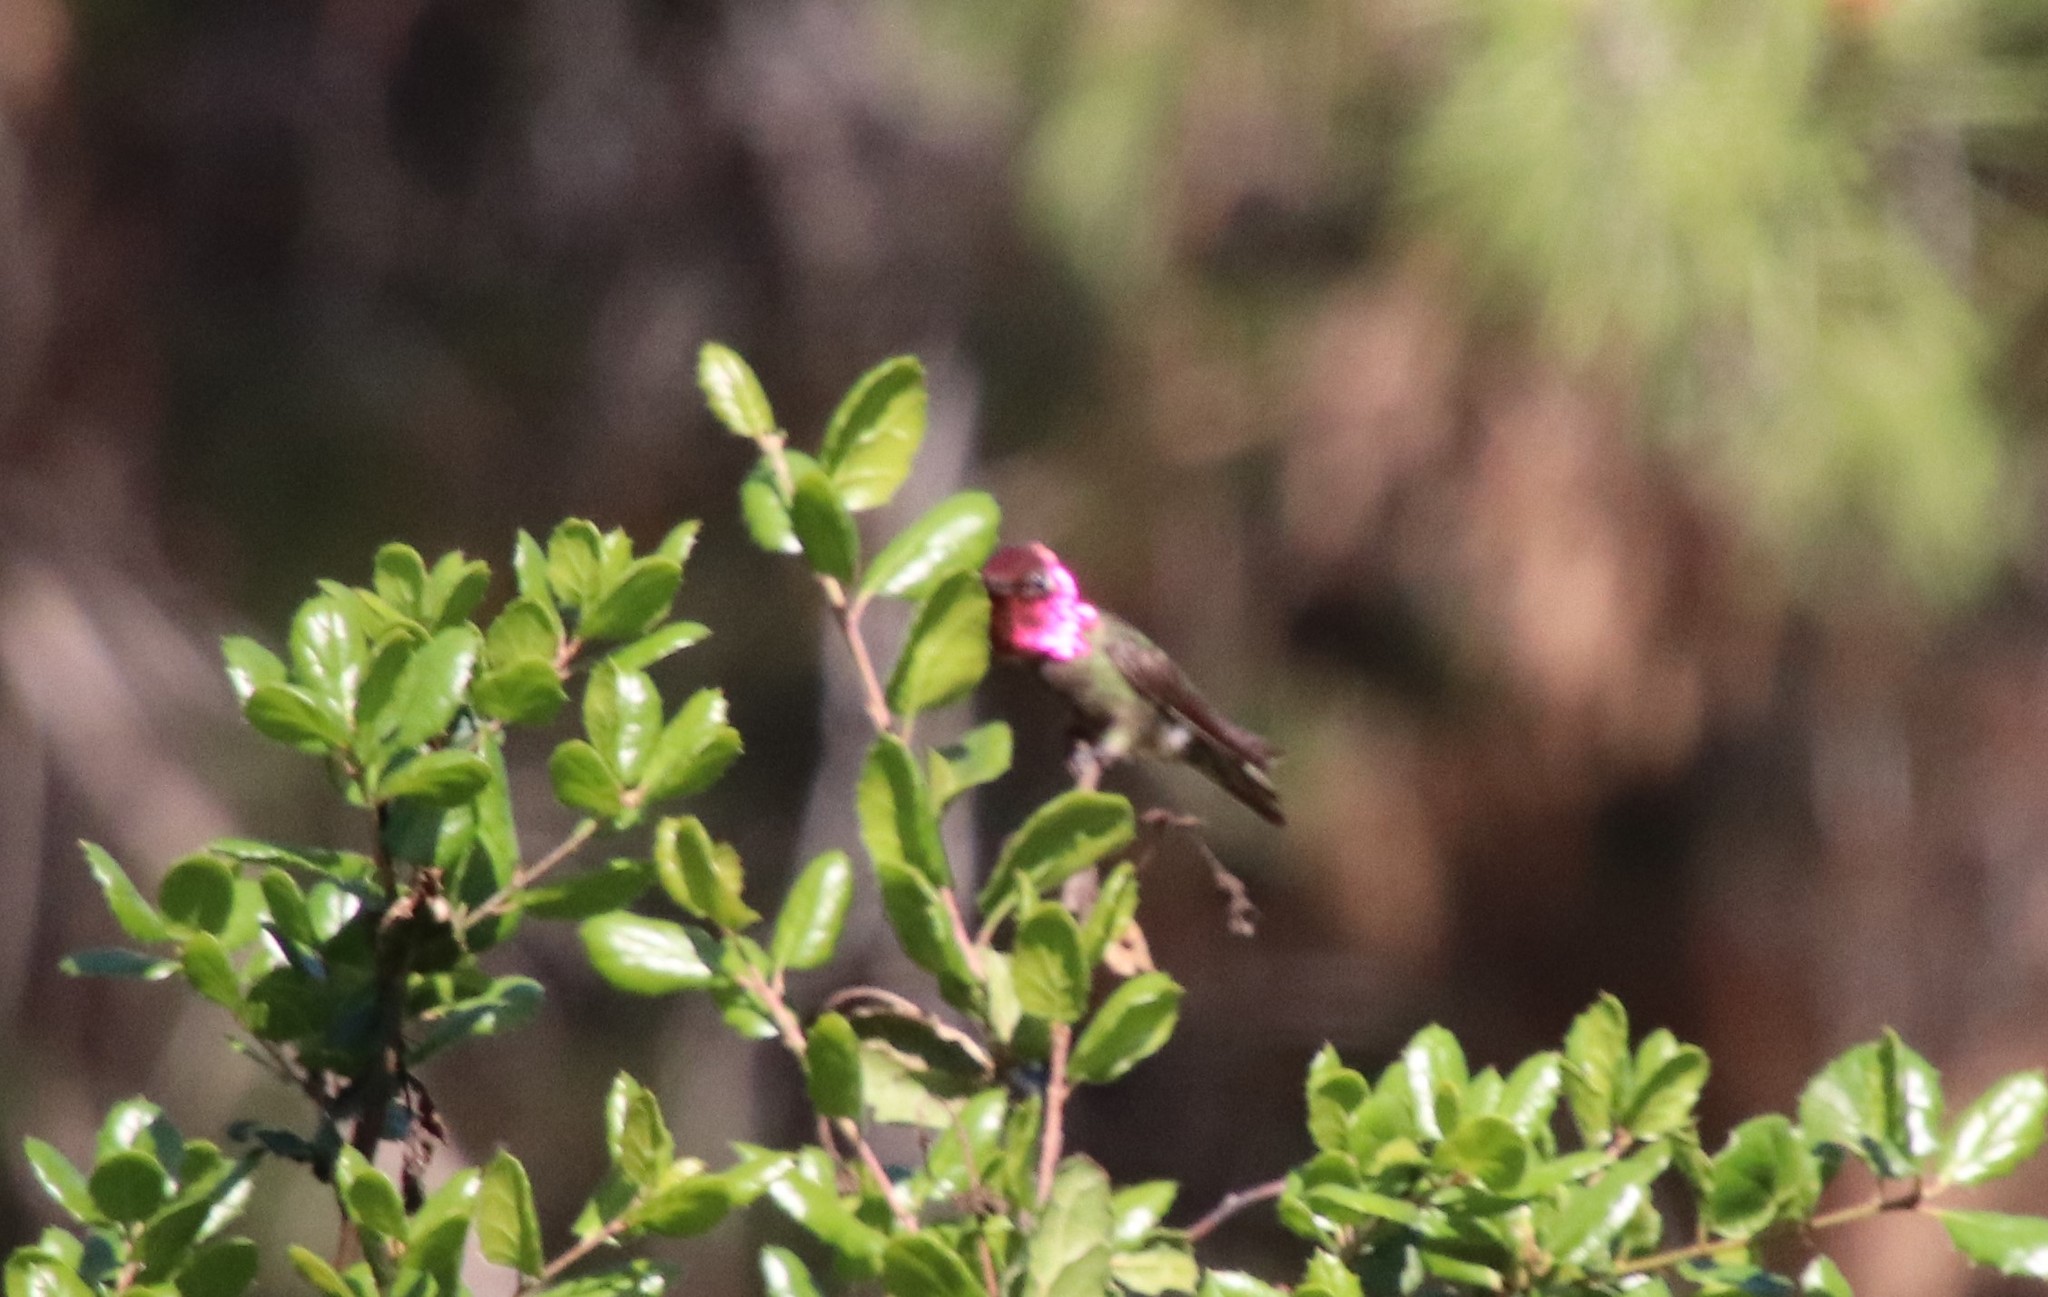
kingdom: Animalia
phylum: Chordata
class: Aves
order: Apodiformes
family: Trochilidae
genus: Calypte
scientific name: Calypte anna
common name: Anna's hummingbird
